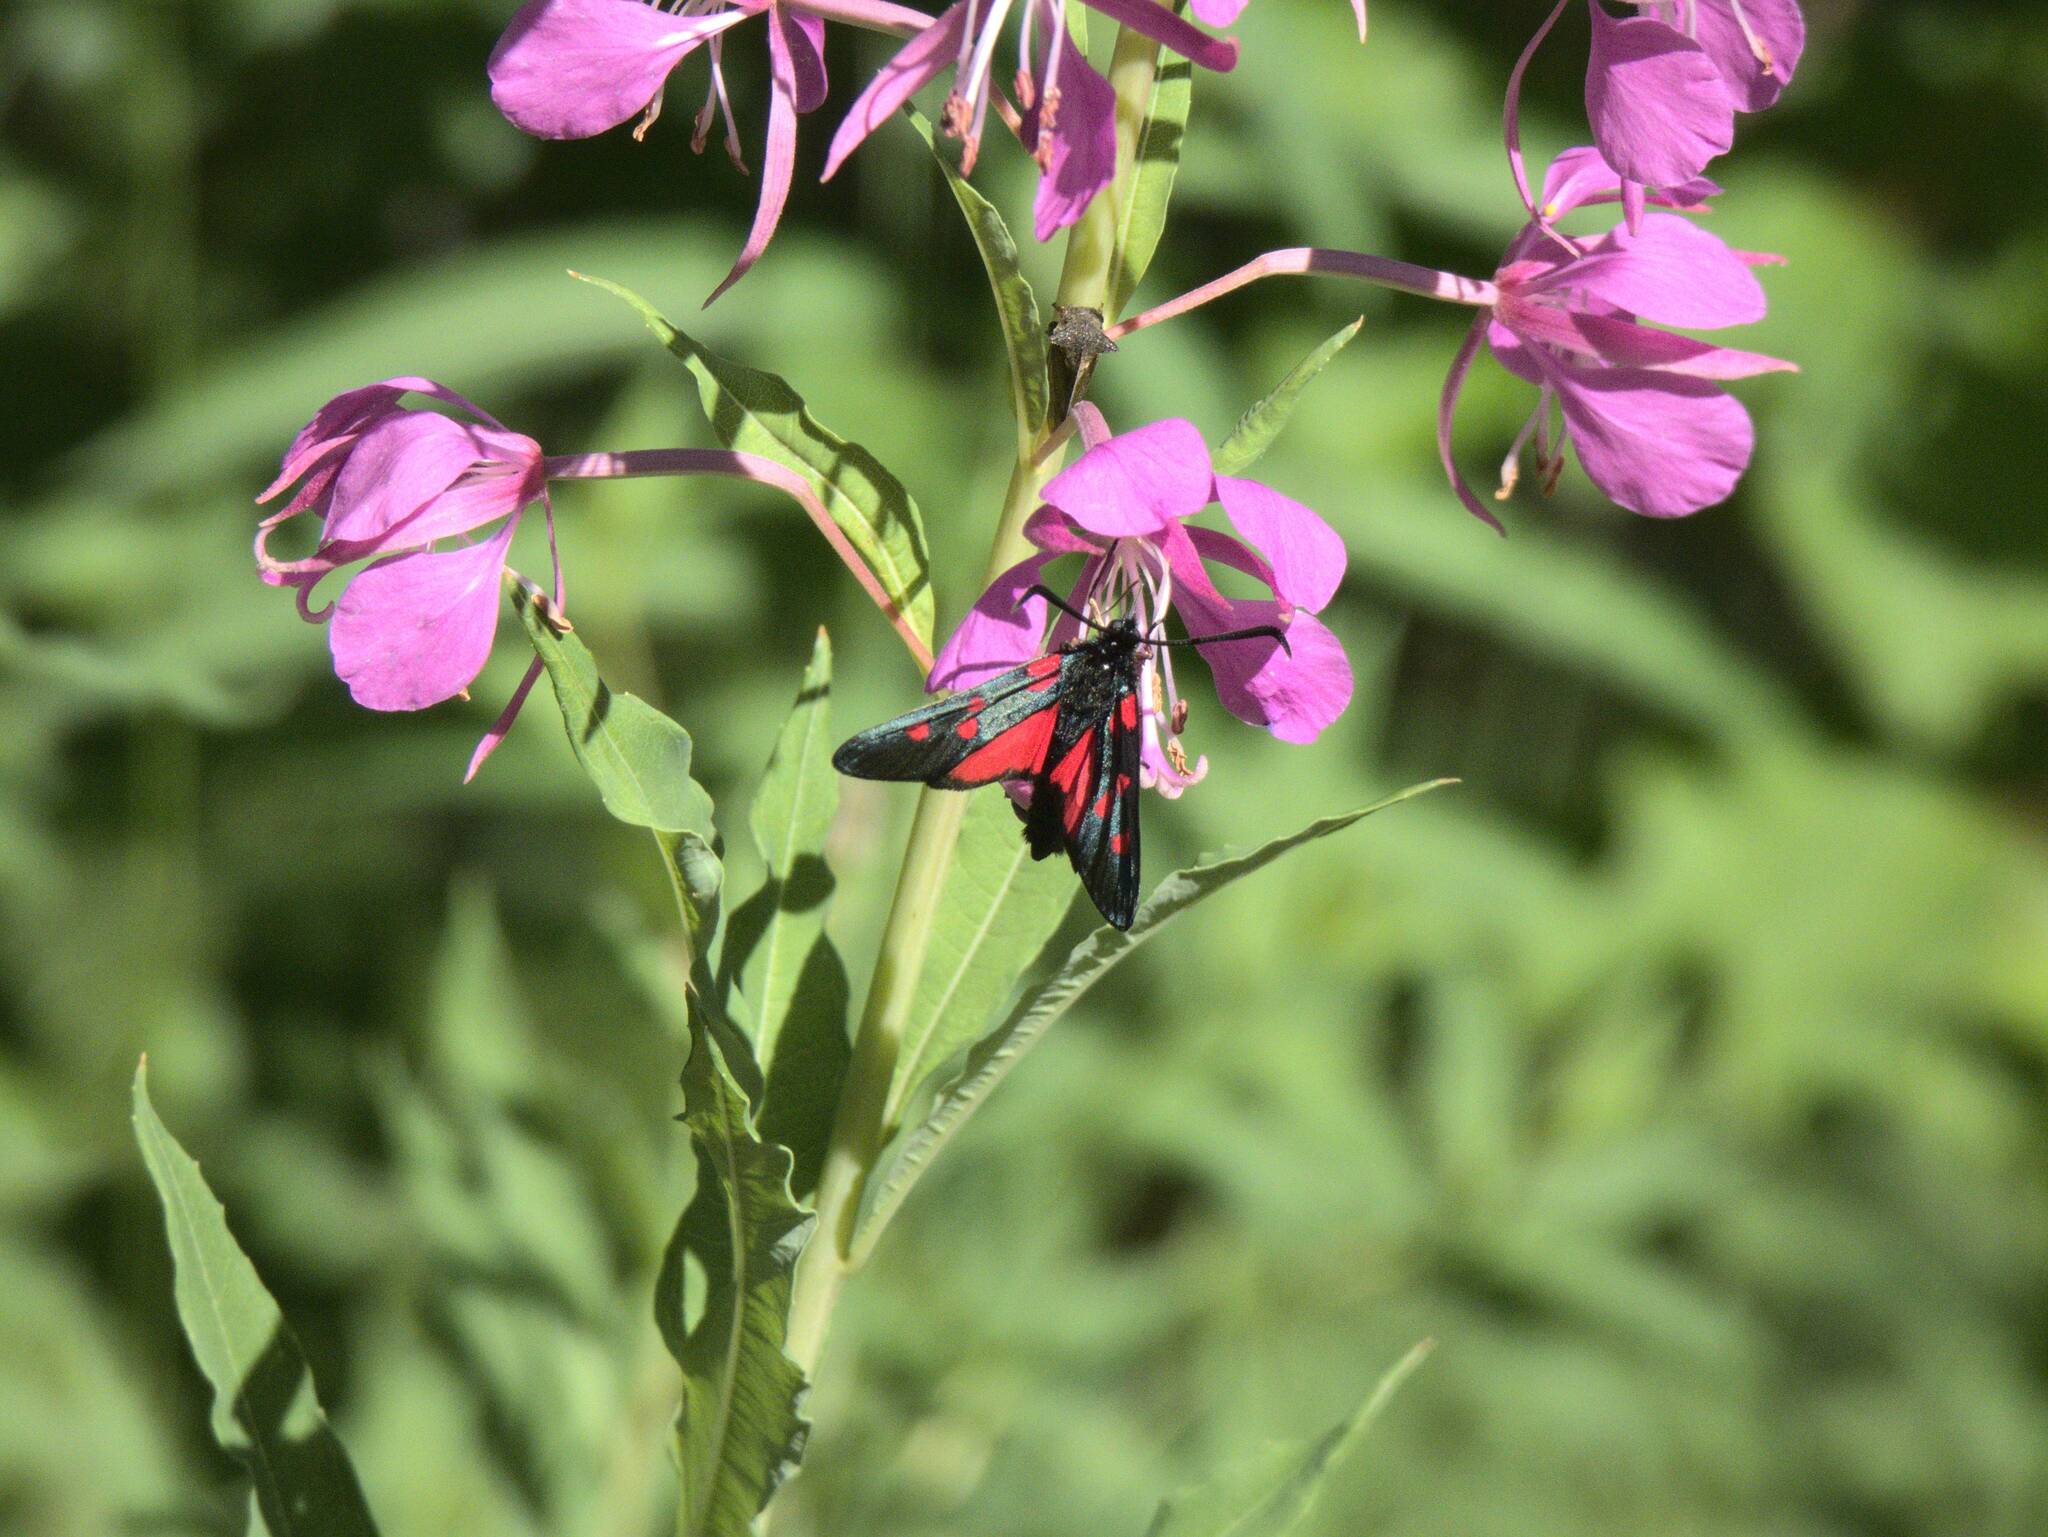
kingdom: Animalia
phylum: Arthropoda
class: Insecta
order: Lepidoptera
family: Zygaenidae
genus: Zygaena
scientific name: Zygaena lonicerae
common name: Narrow-bordered five-spot burnet
